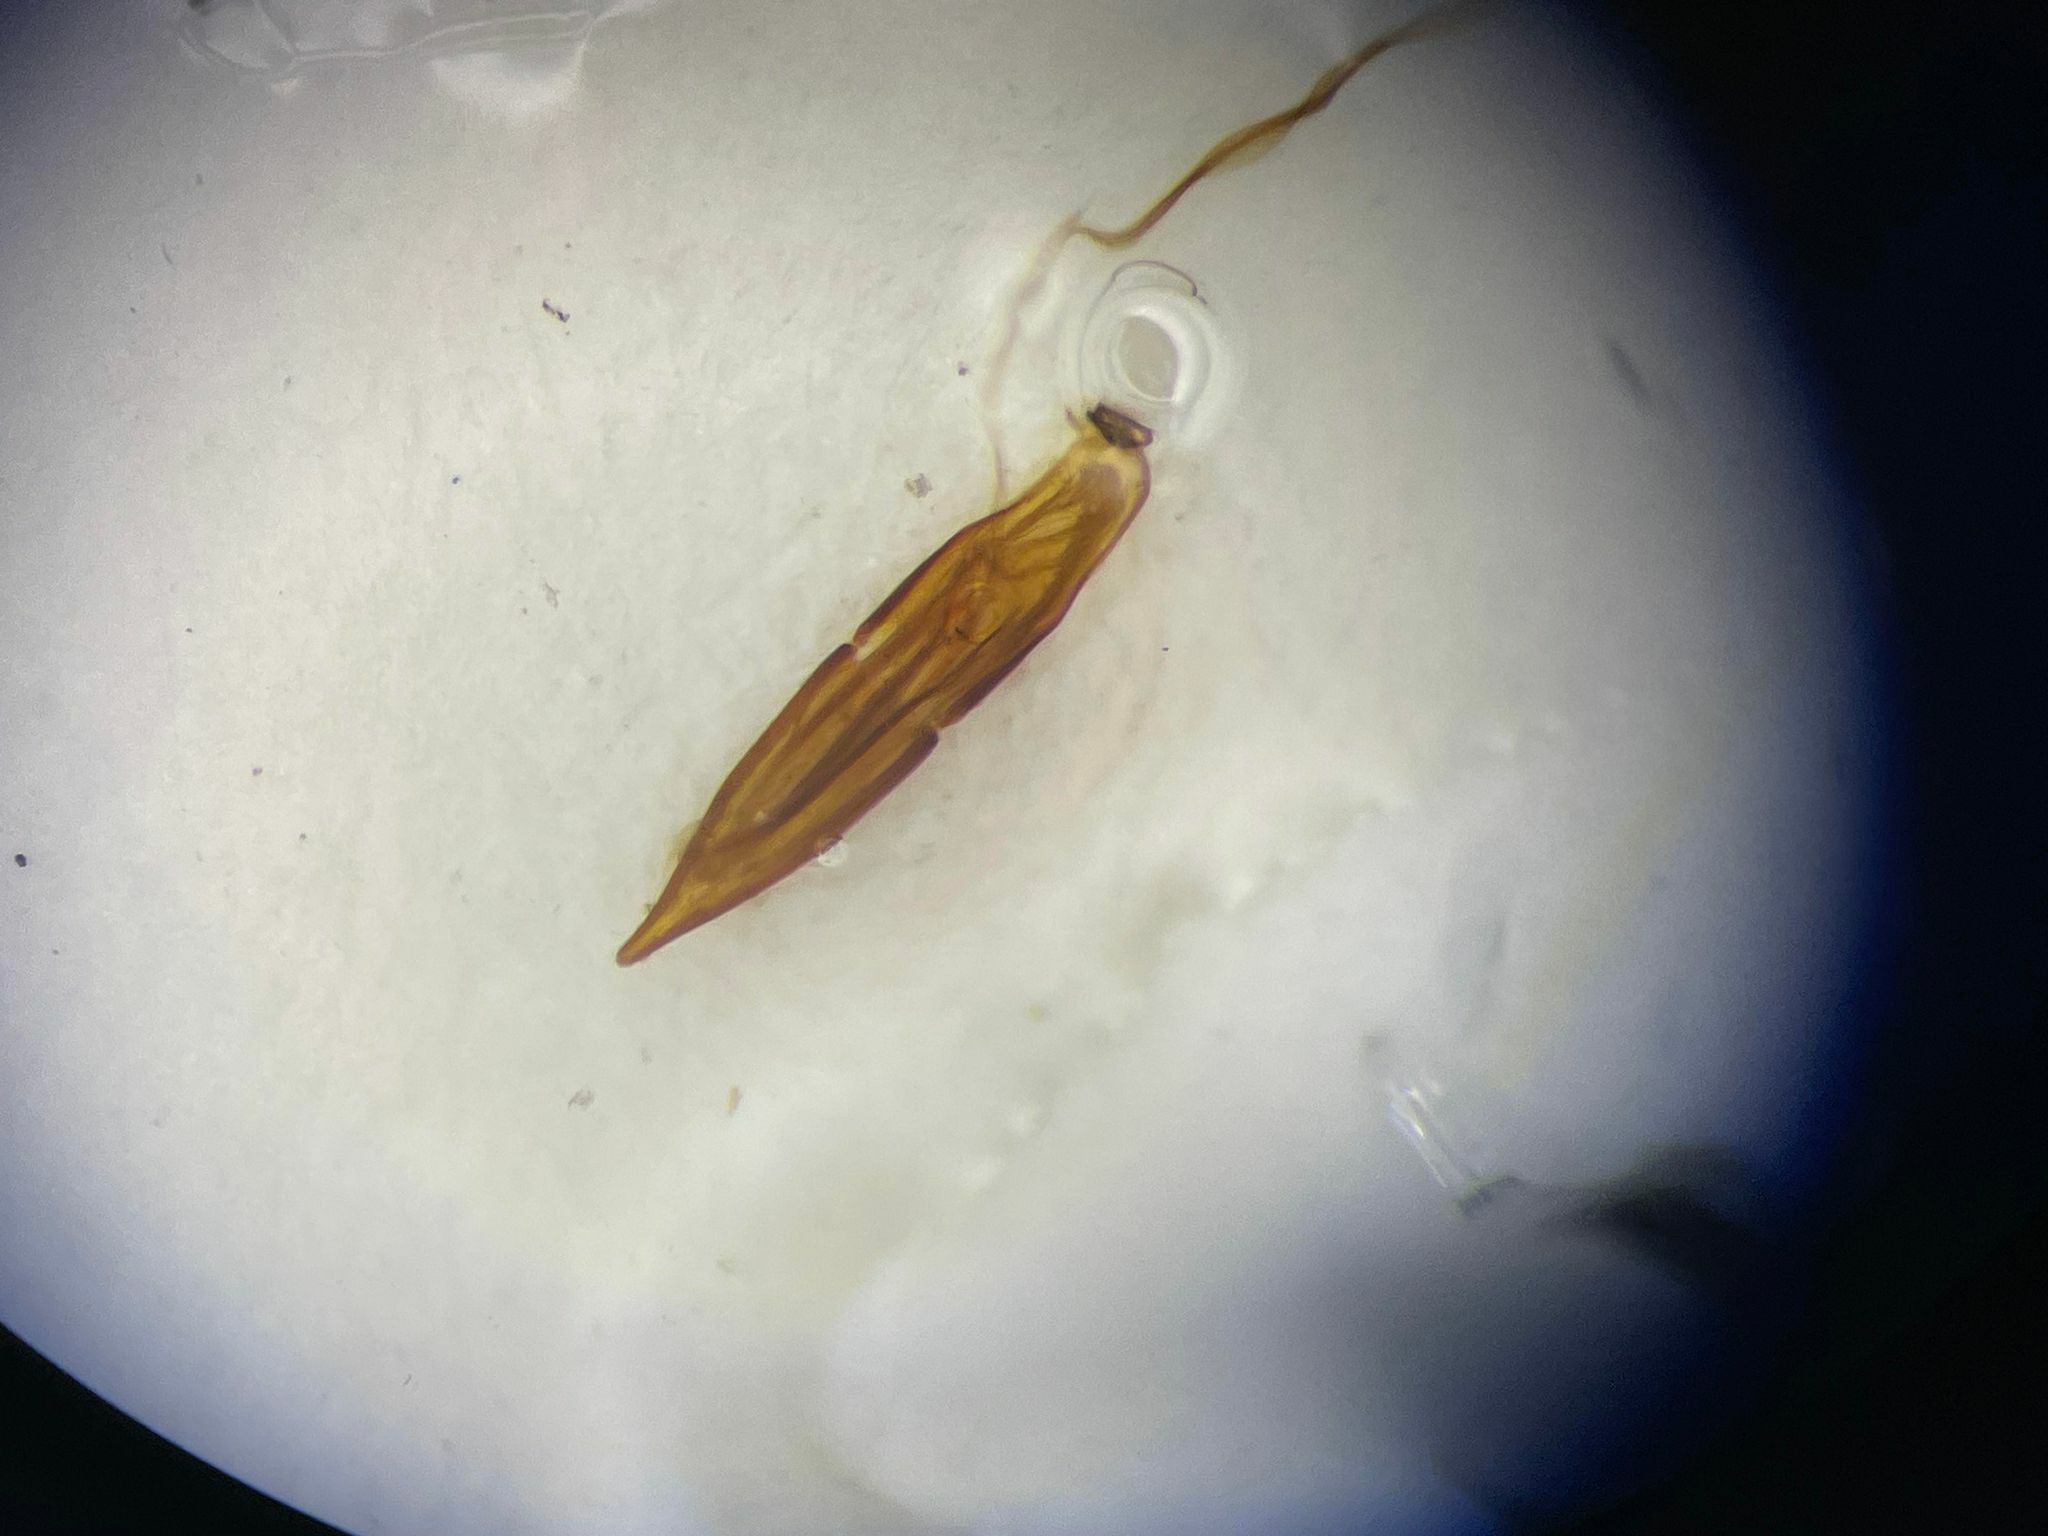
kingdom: Animalia
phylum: Arthropoda
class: Insecta
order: Coleoptera
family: Tenebrionidae
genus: Bolitophagus
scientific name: Bolitophagus corticola
